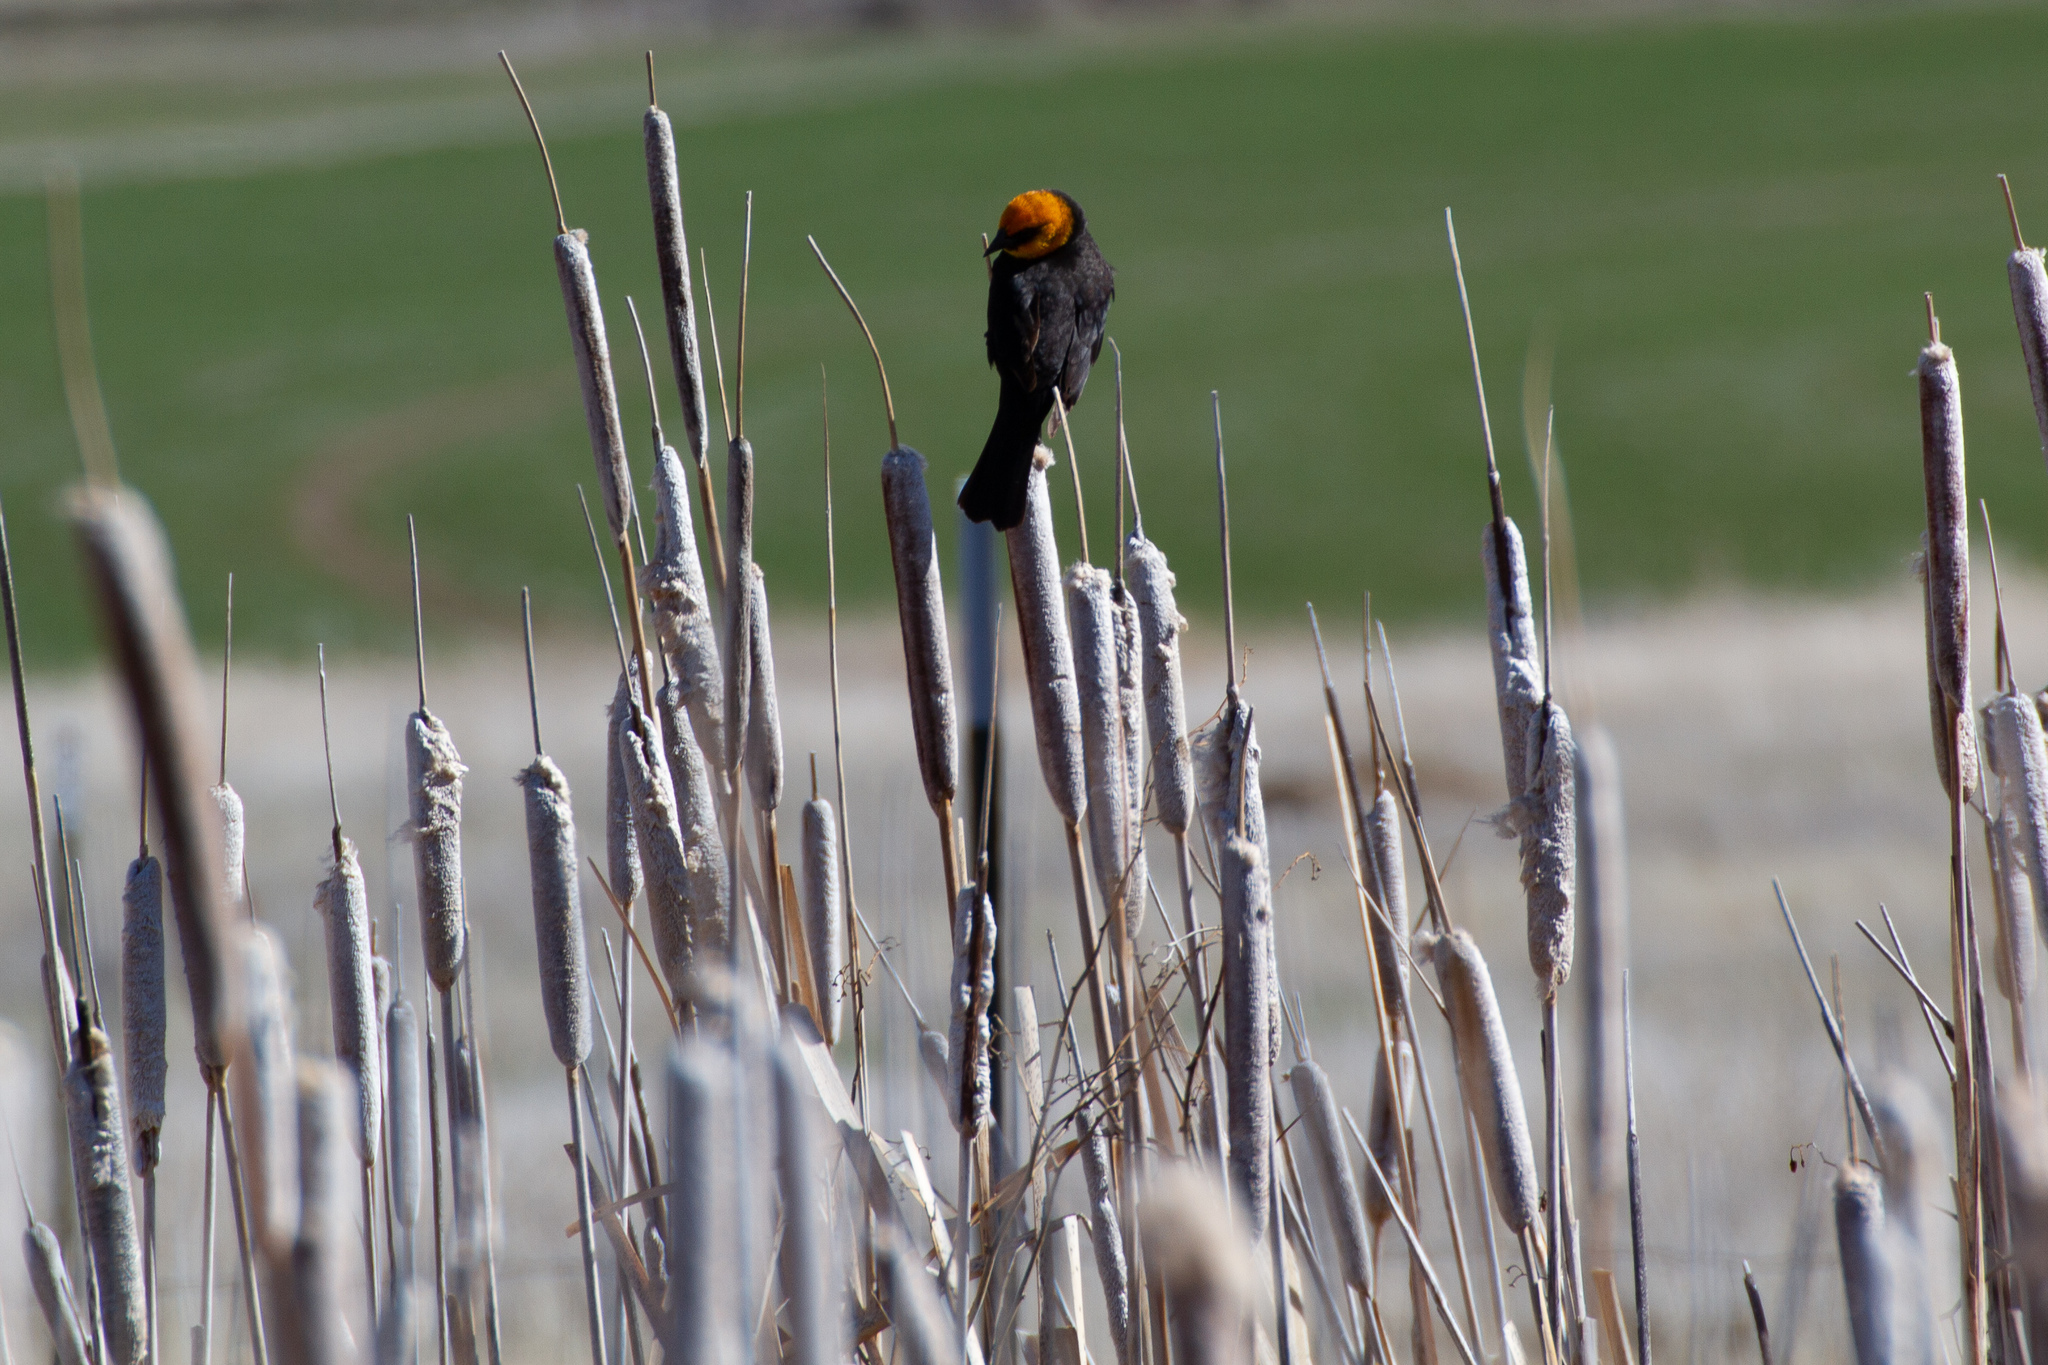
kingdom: Animalia
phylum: Chordata
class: Aves
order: Passeriformes
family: Icteridae
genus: Xanthocephalus
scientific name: Xanthocephalus xanthocephalus
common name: Yellow-headed blackbird
